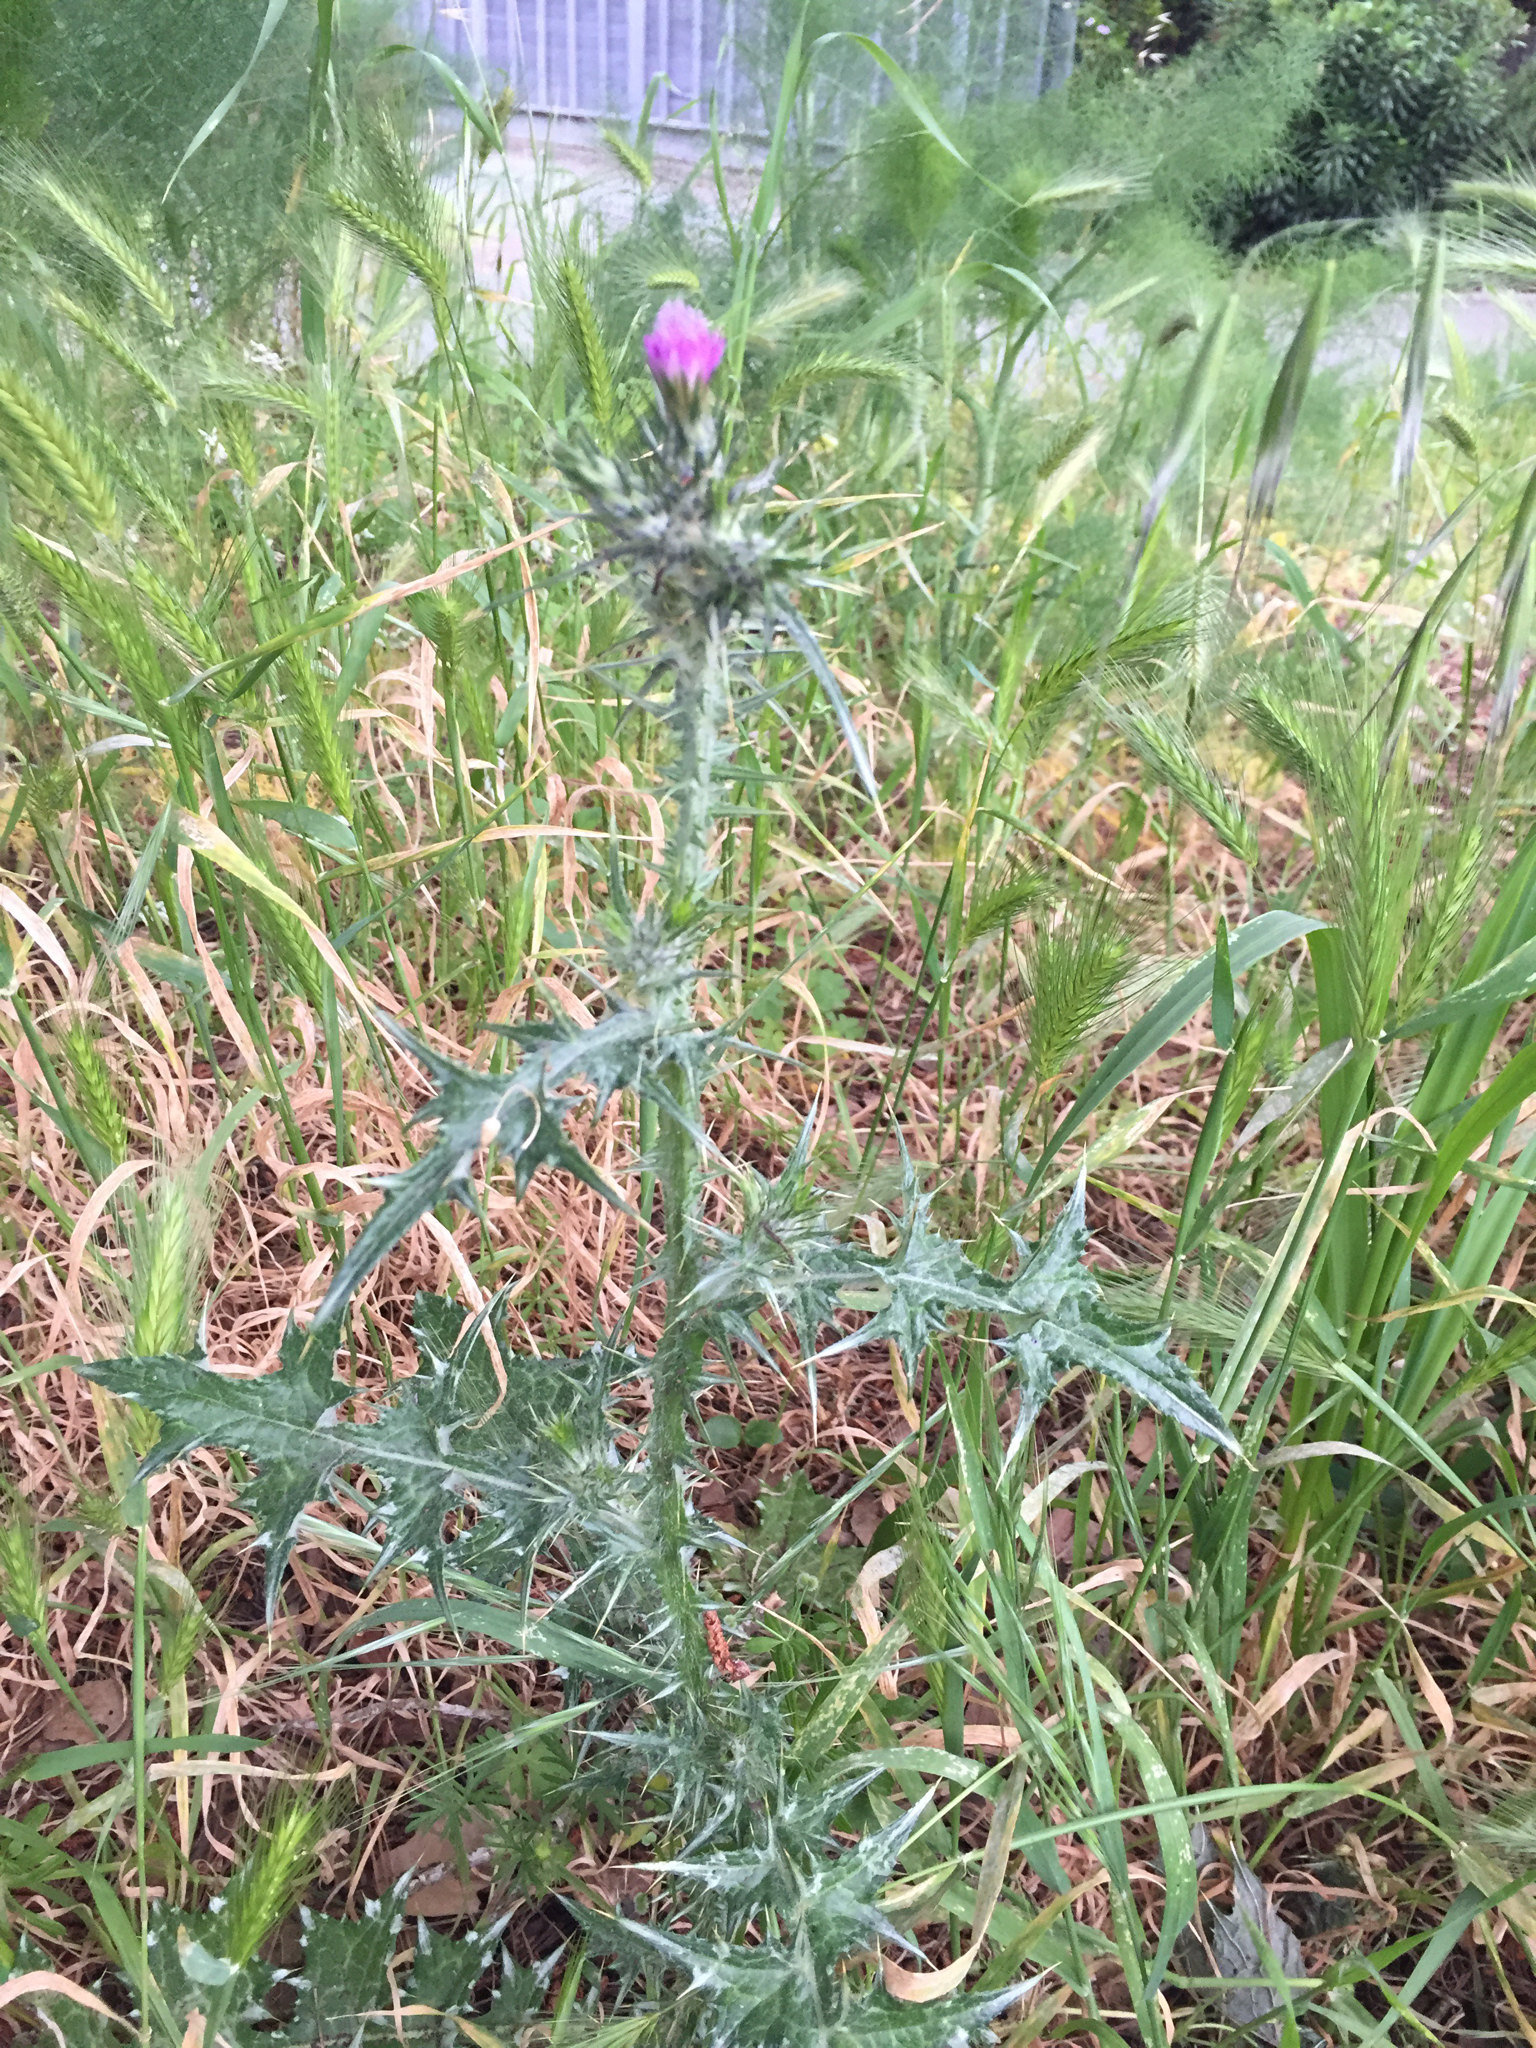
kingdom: Plantae
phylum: Tracheophyta
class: Magnoliopsida
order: Asterales
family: Asteraceae
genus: Carduus
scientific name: Carduus pycnocephalus
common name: Plymouth thistle
